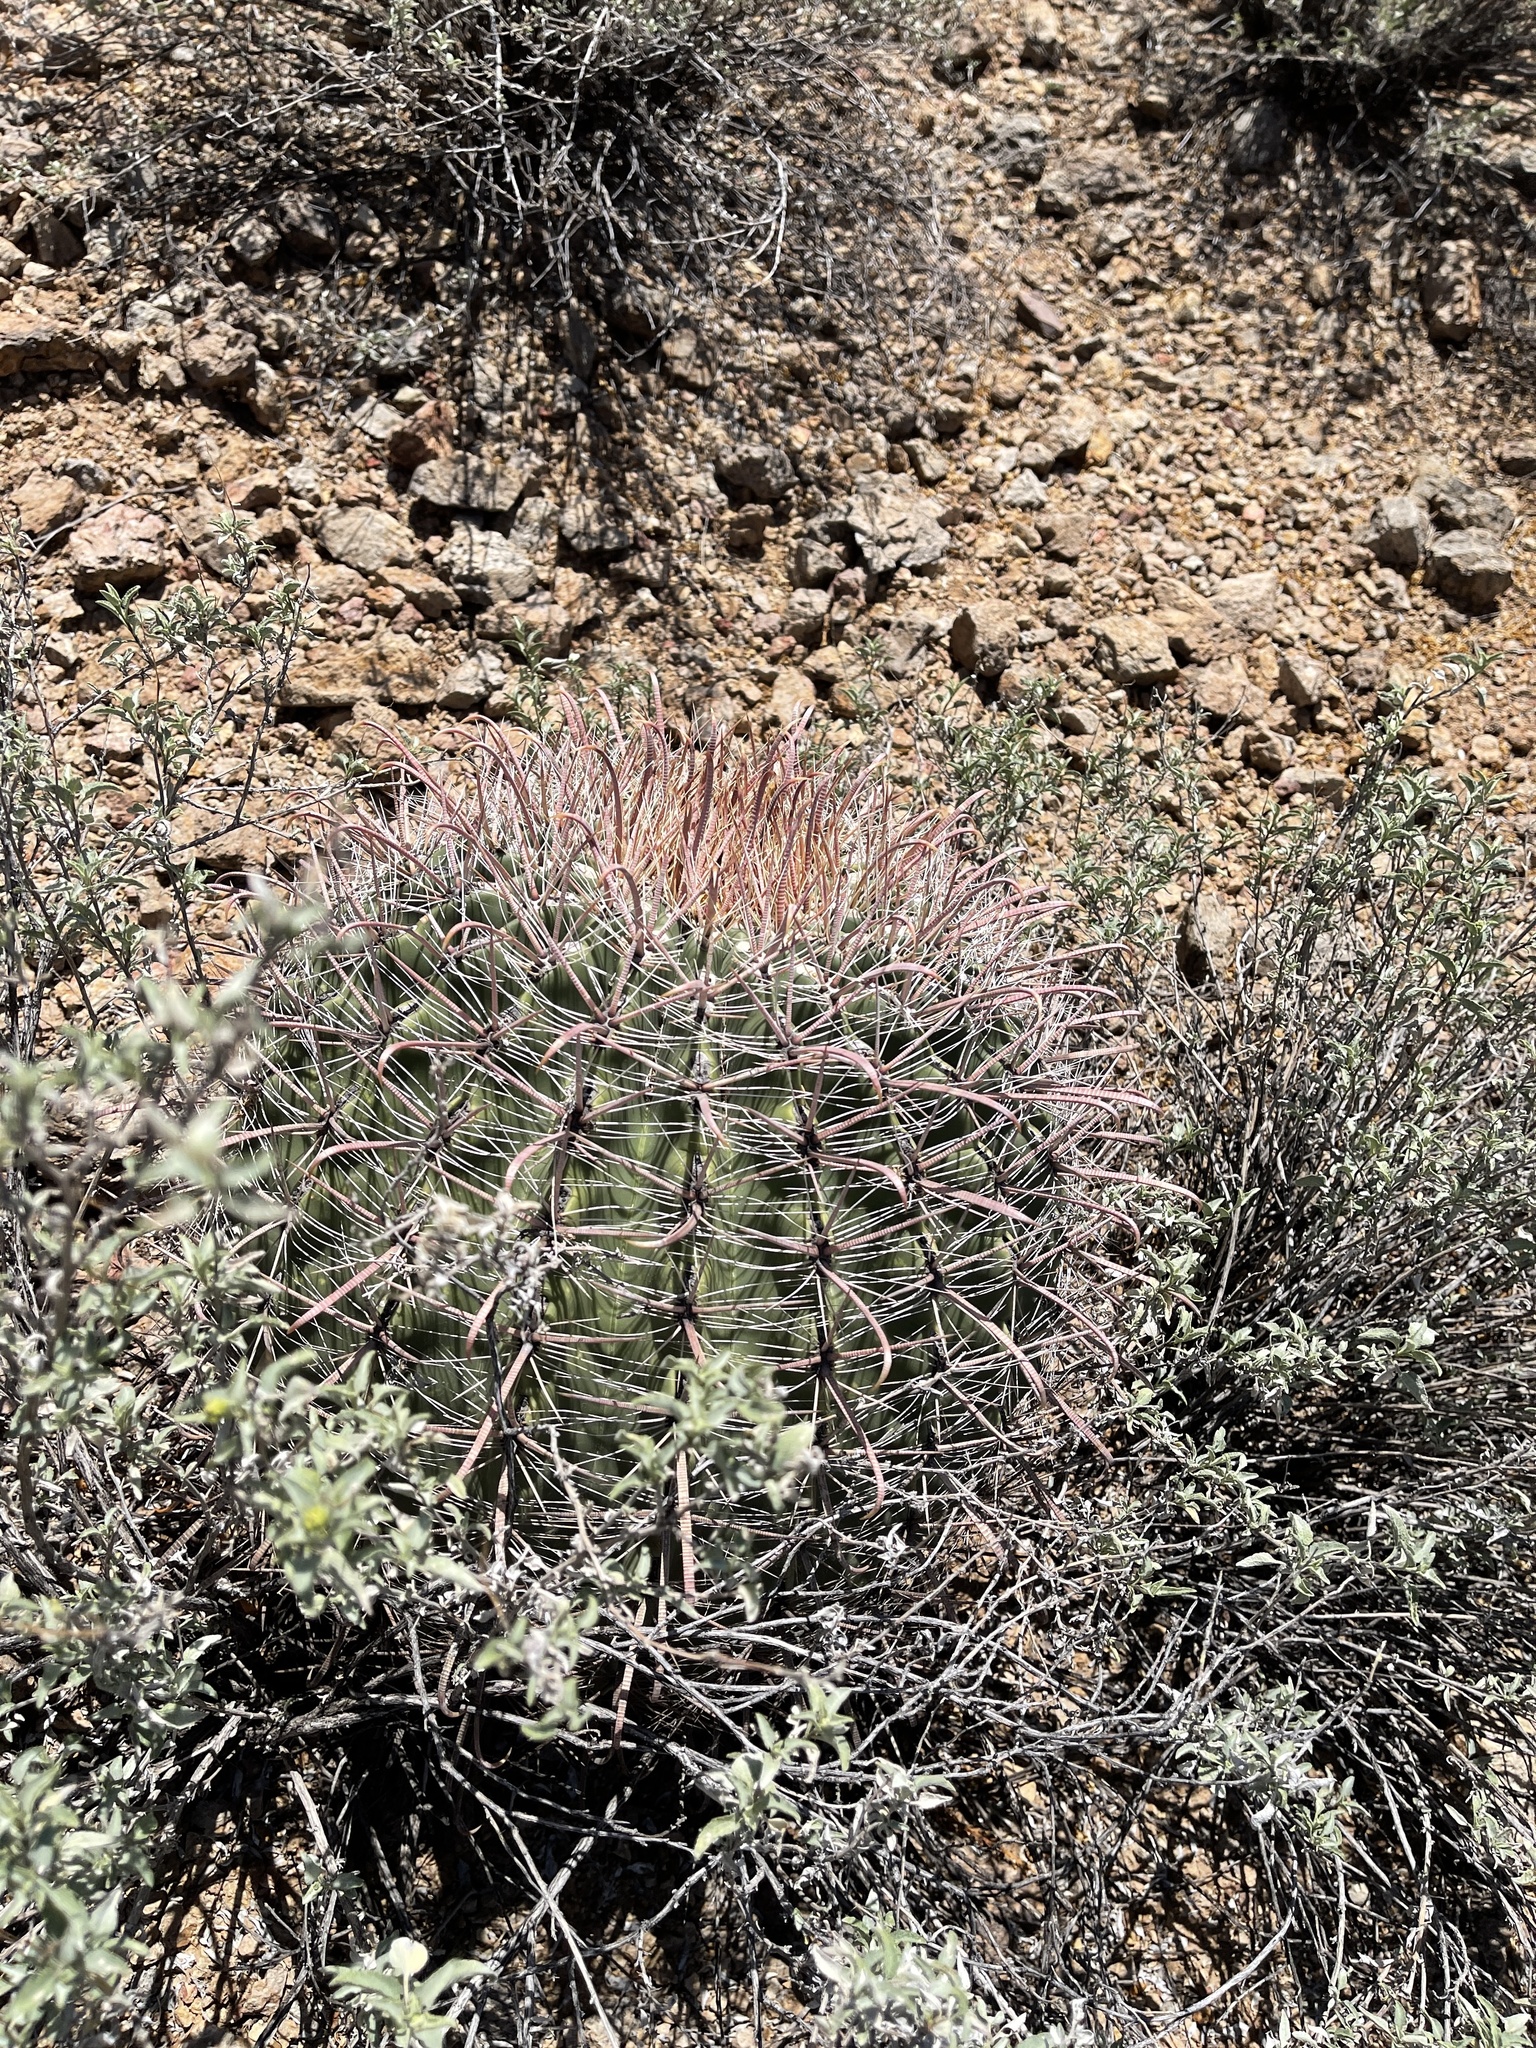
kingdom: Plantae
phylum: Tracheophyta
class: Magnoliopsida
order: Caryophyllales
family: Cactaceae
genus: Ferocactus
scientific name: Ferocactus wislizeni
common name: Candy barrel cactus
